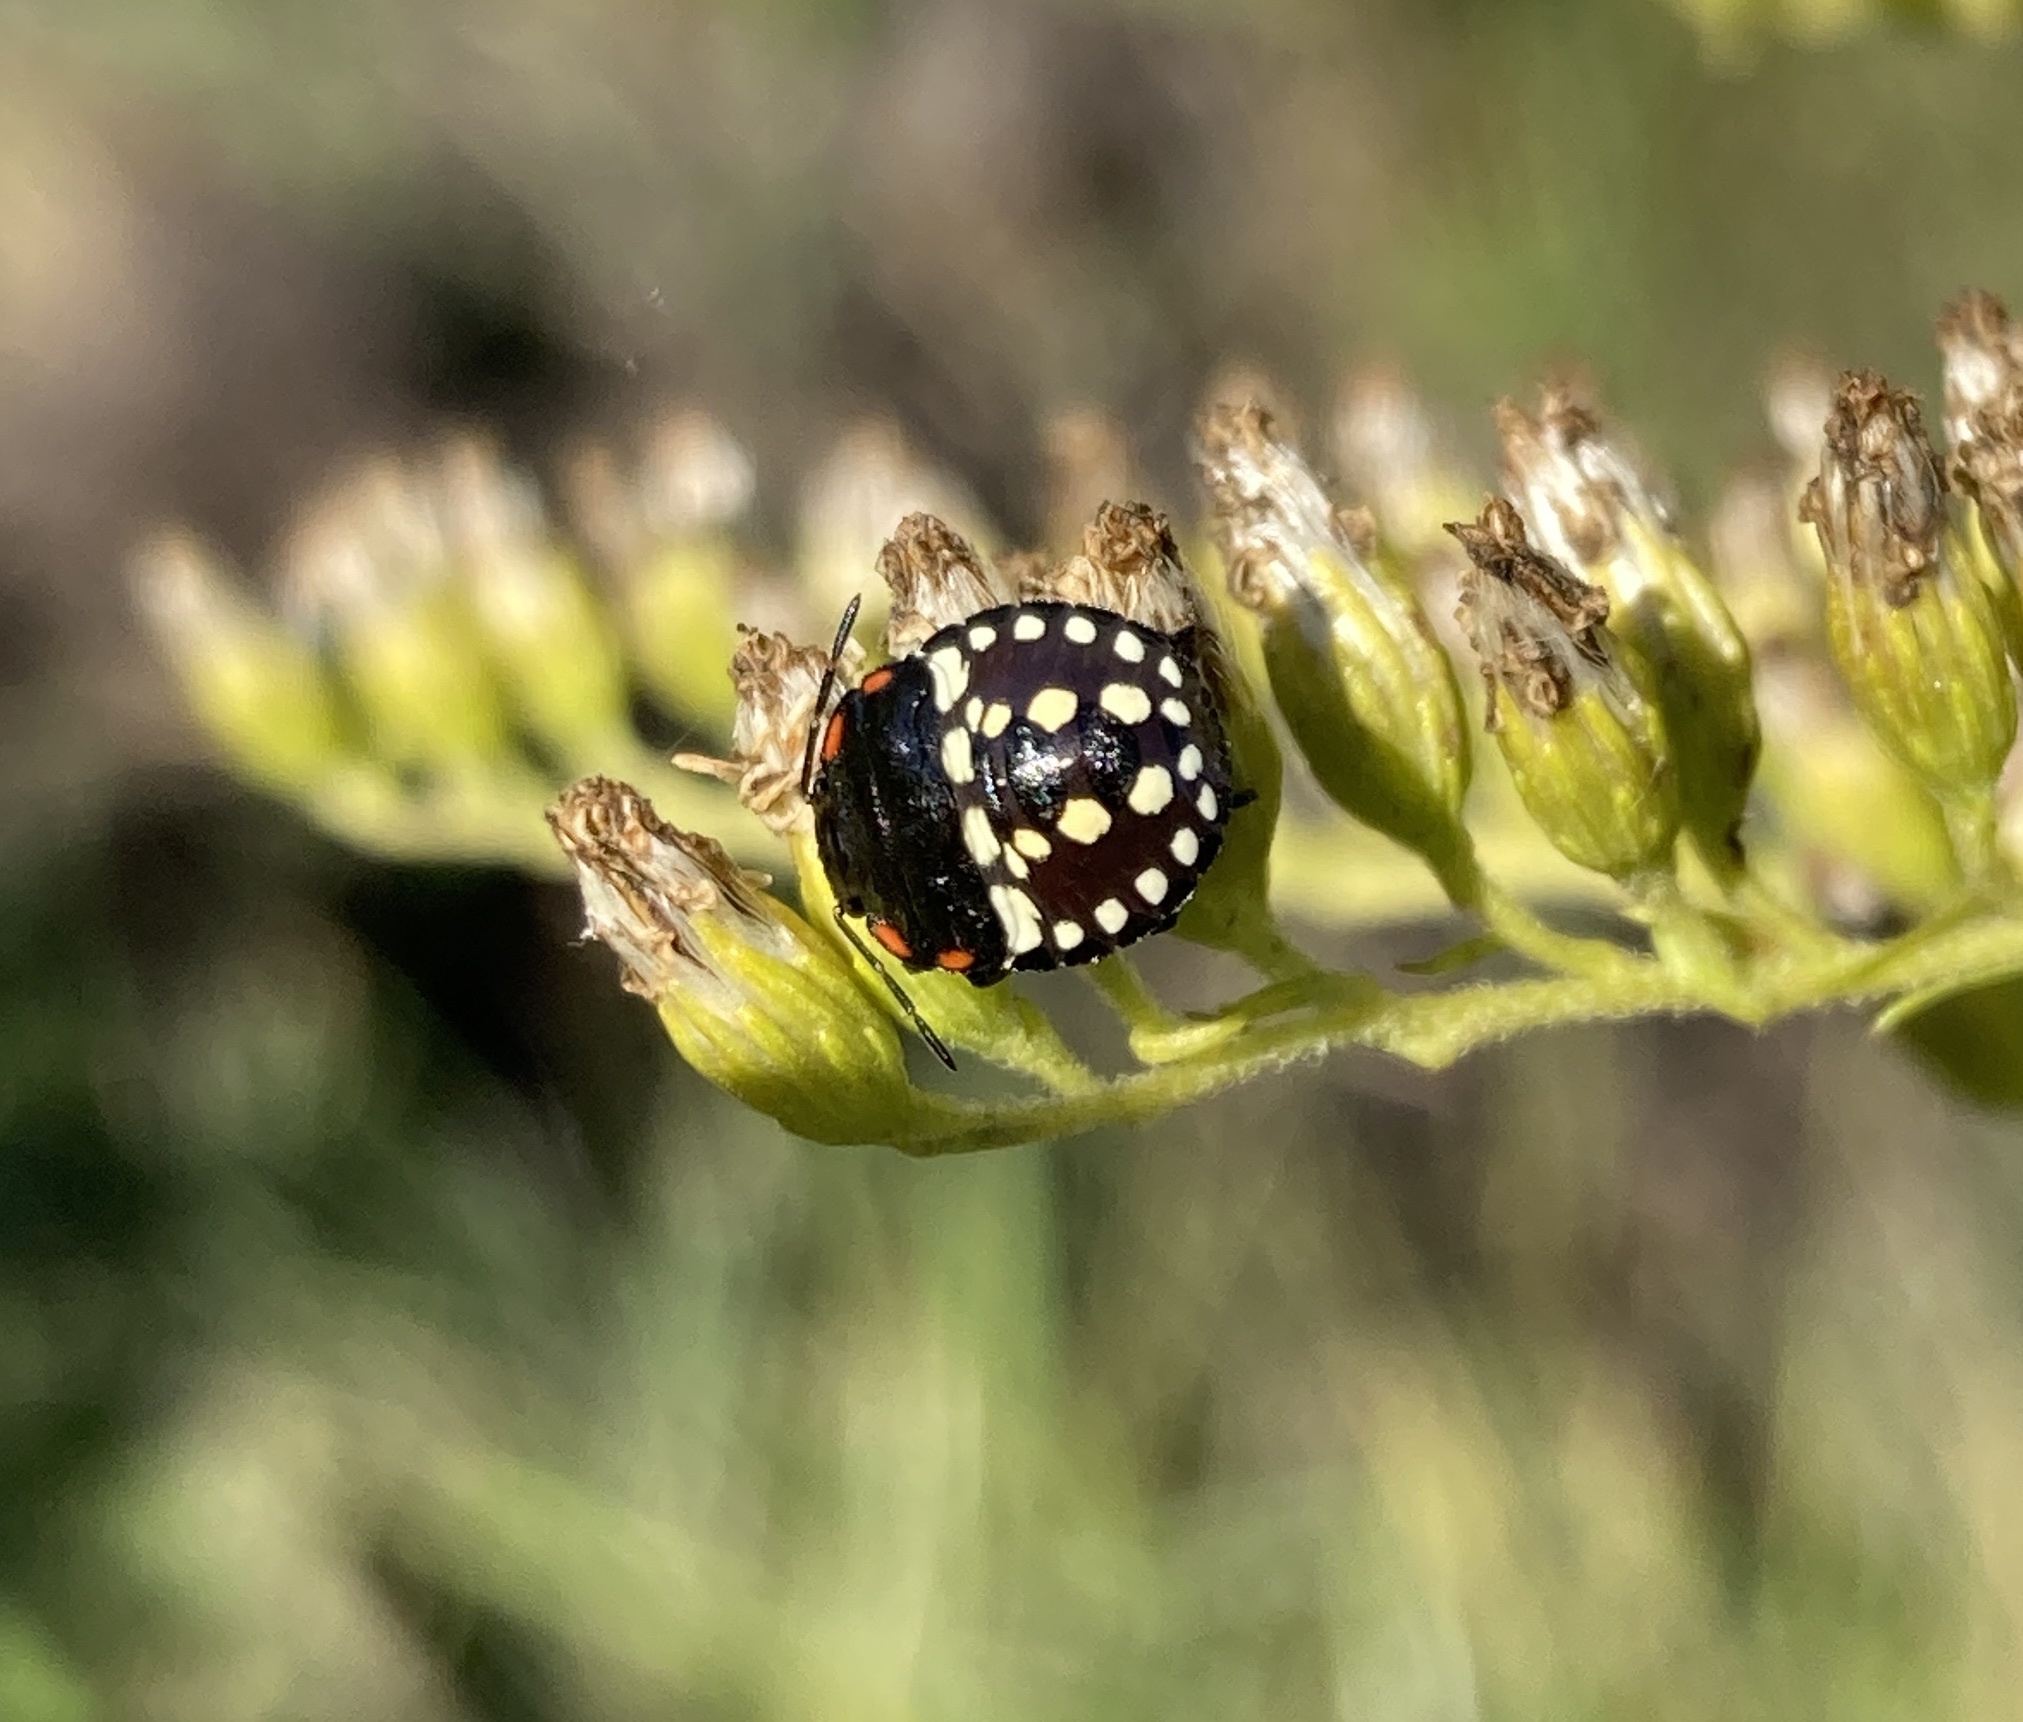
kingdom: Animalia
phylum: Arthropoda
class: Insecta
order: Hemiptera
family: Pentatomidae
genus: Nezara
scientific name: Nezara viridula
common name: Southern green stink bug
